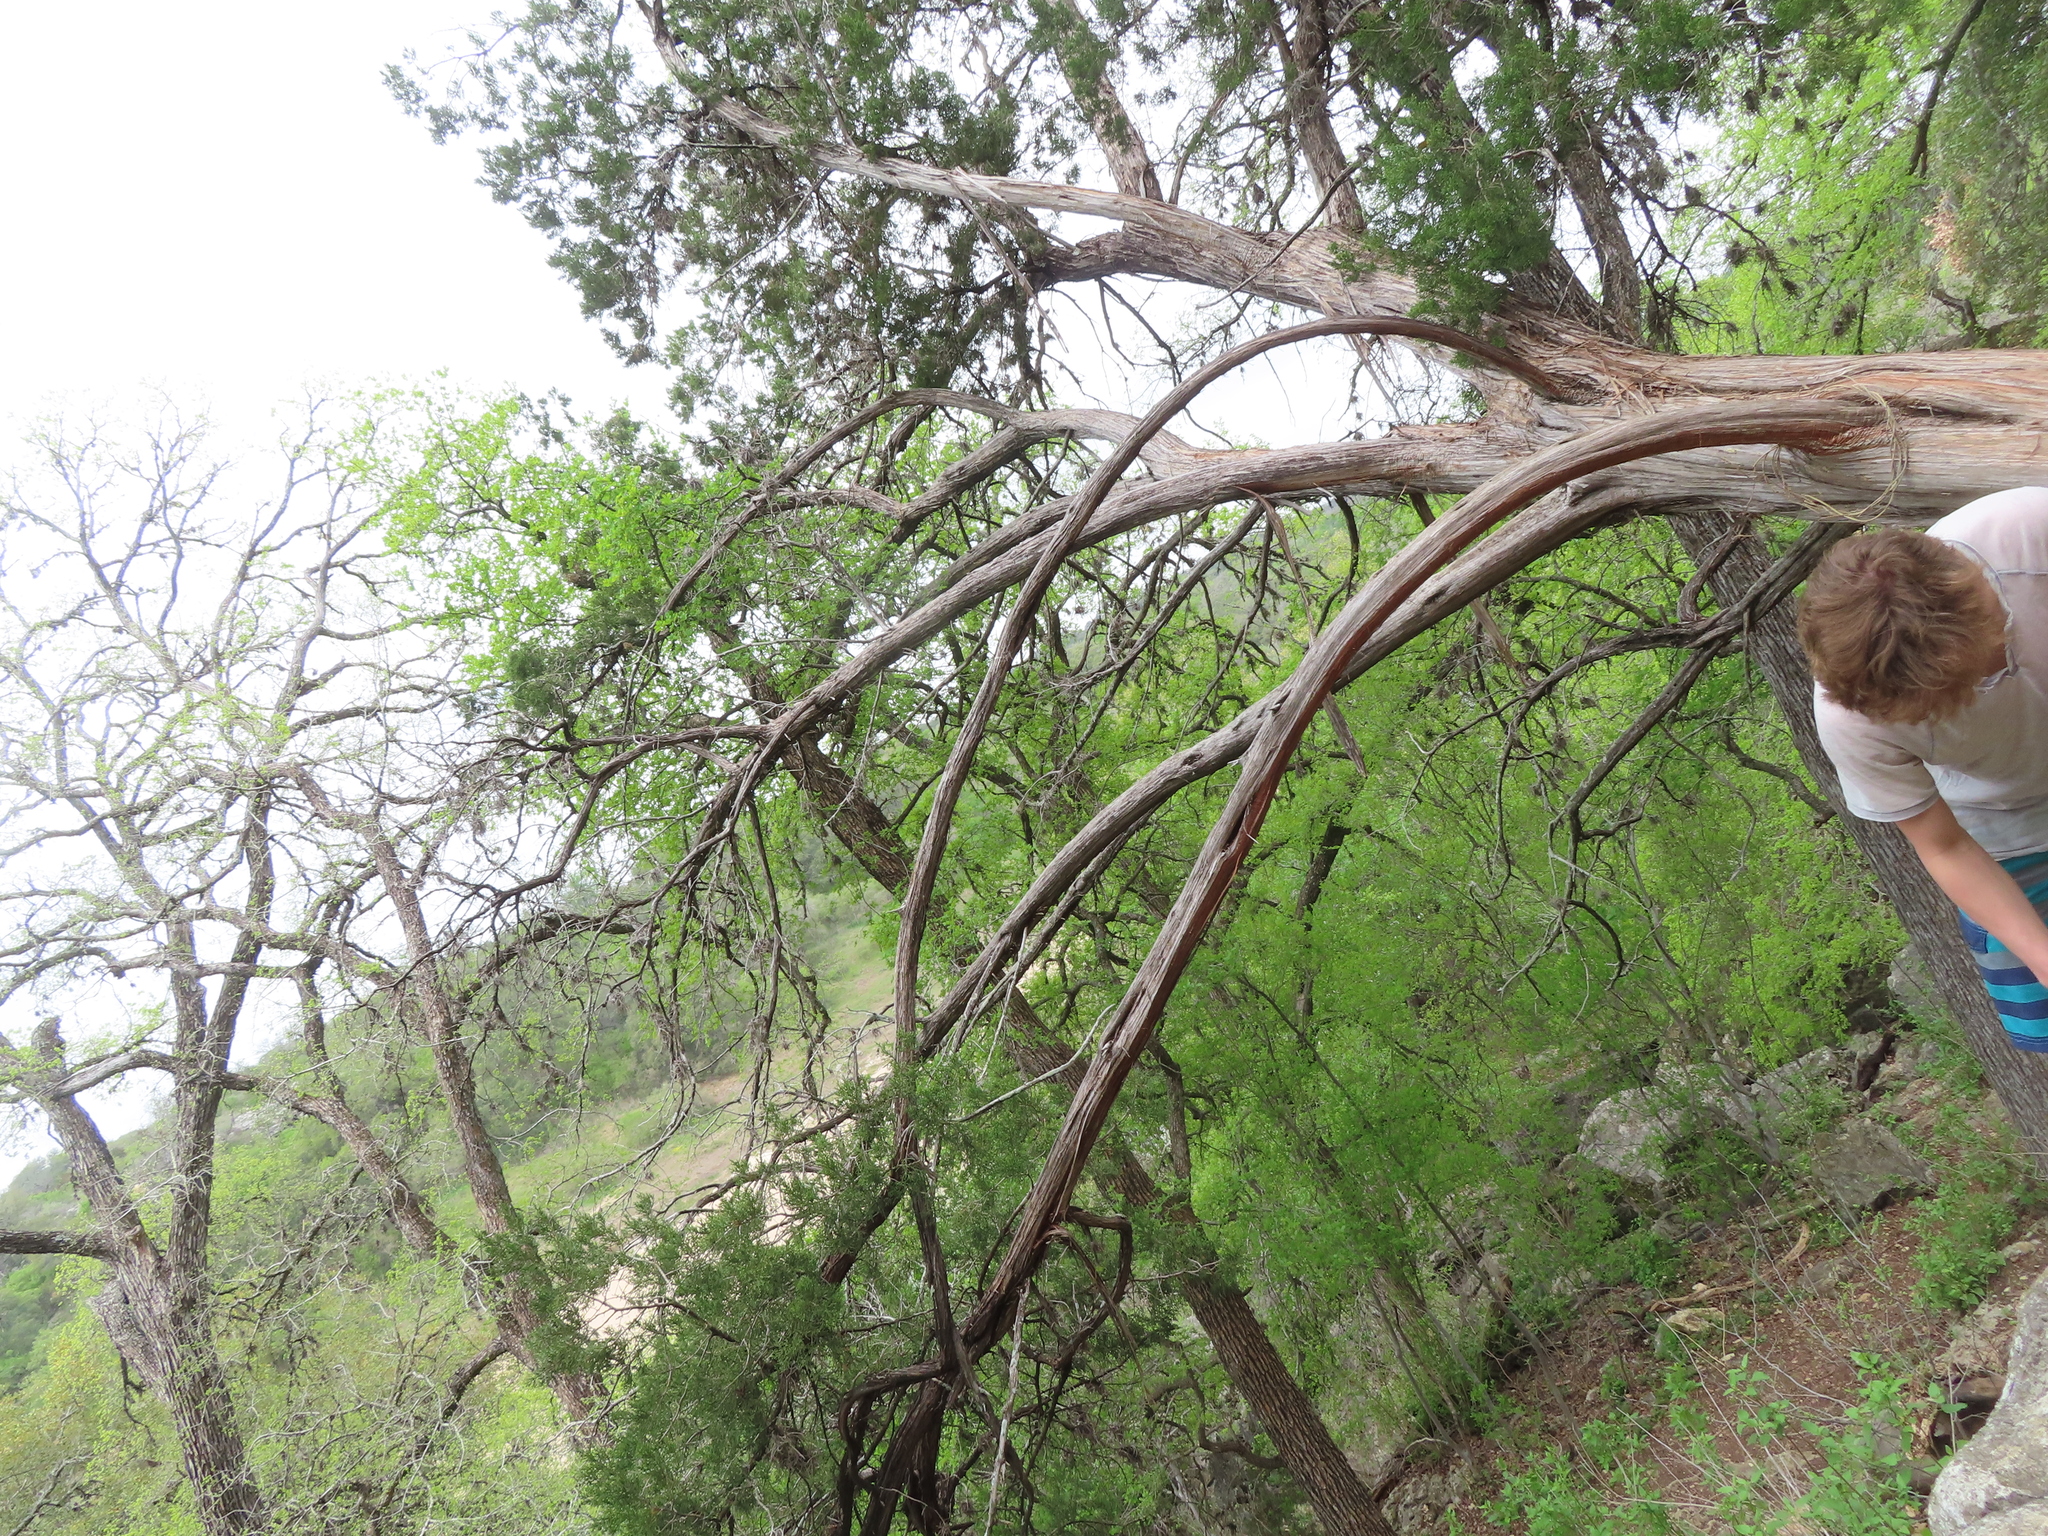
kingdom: Plantae
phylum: Tracheophyta
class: Pinopsida
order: Pinales
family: Cupressaceae
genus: Juniperus
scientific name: Juniperus ashei
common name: Mexican juniper
